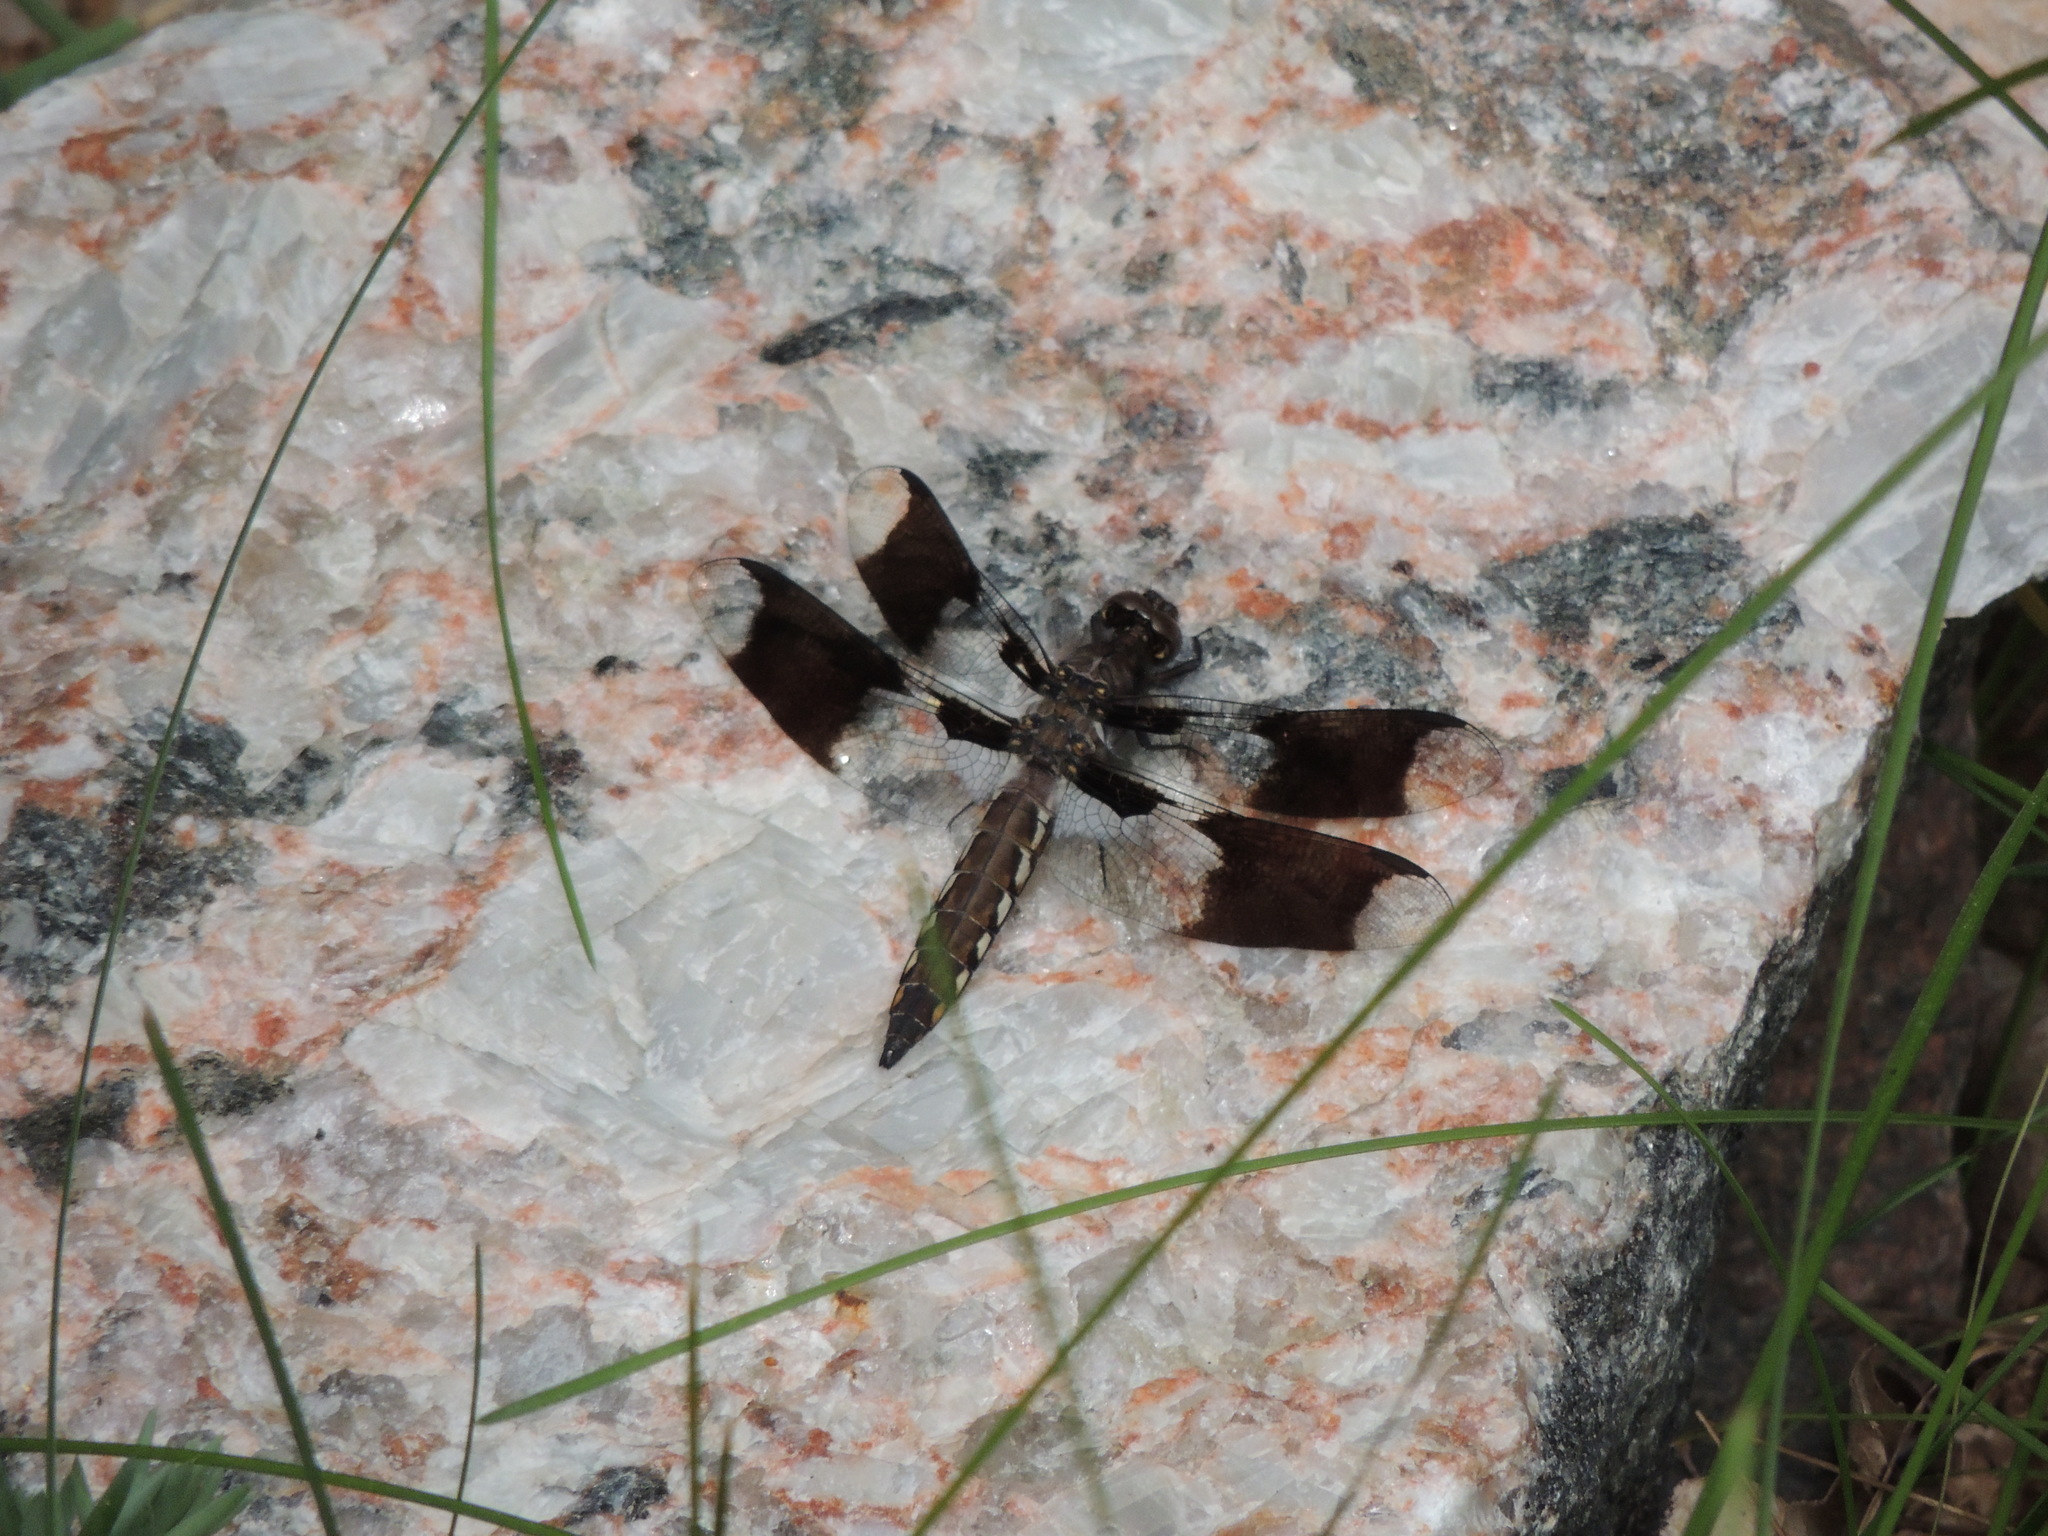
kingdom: Animalia
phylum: Arthropoda
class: Insecta
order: Odonata
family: Libellulidae
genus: Plathemis
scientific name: Plathemis lydia
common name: Common whitetail
